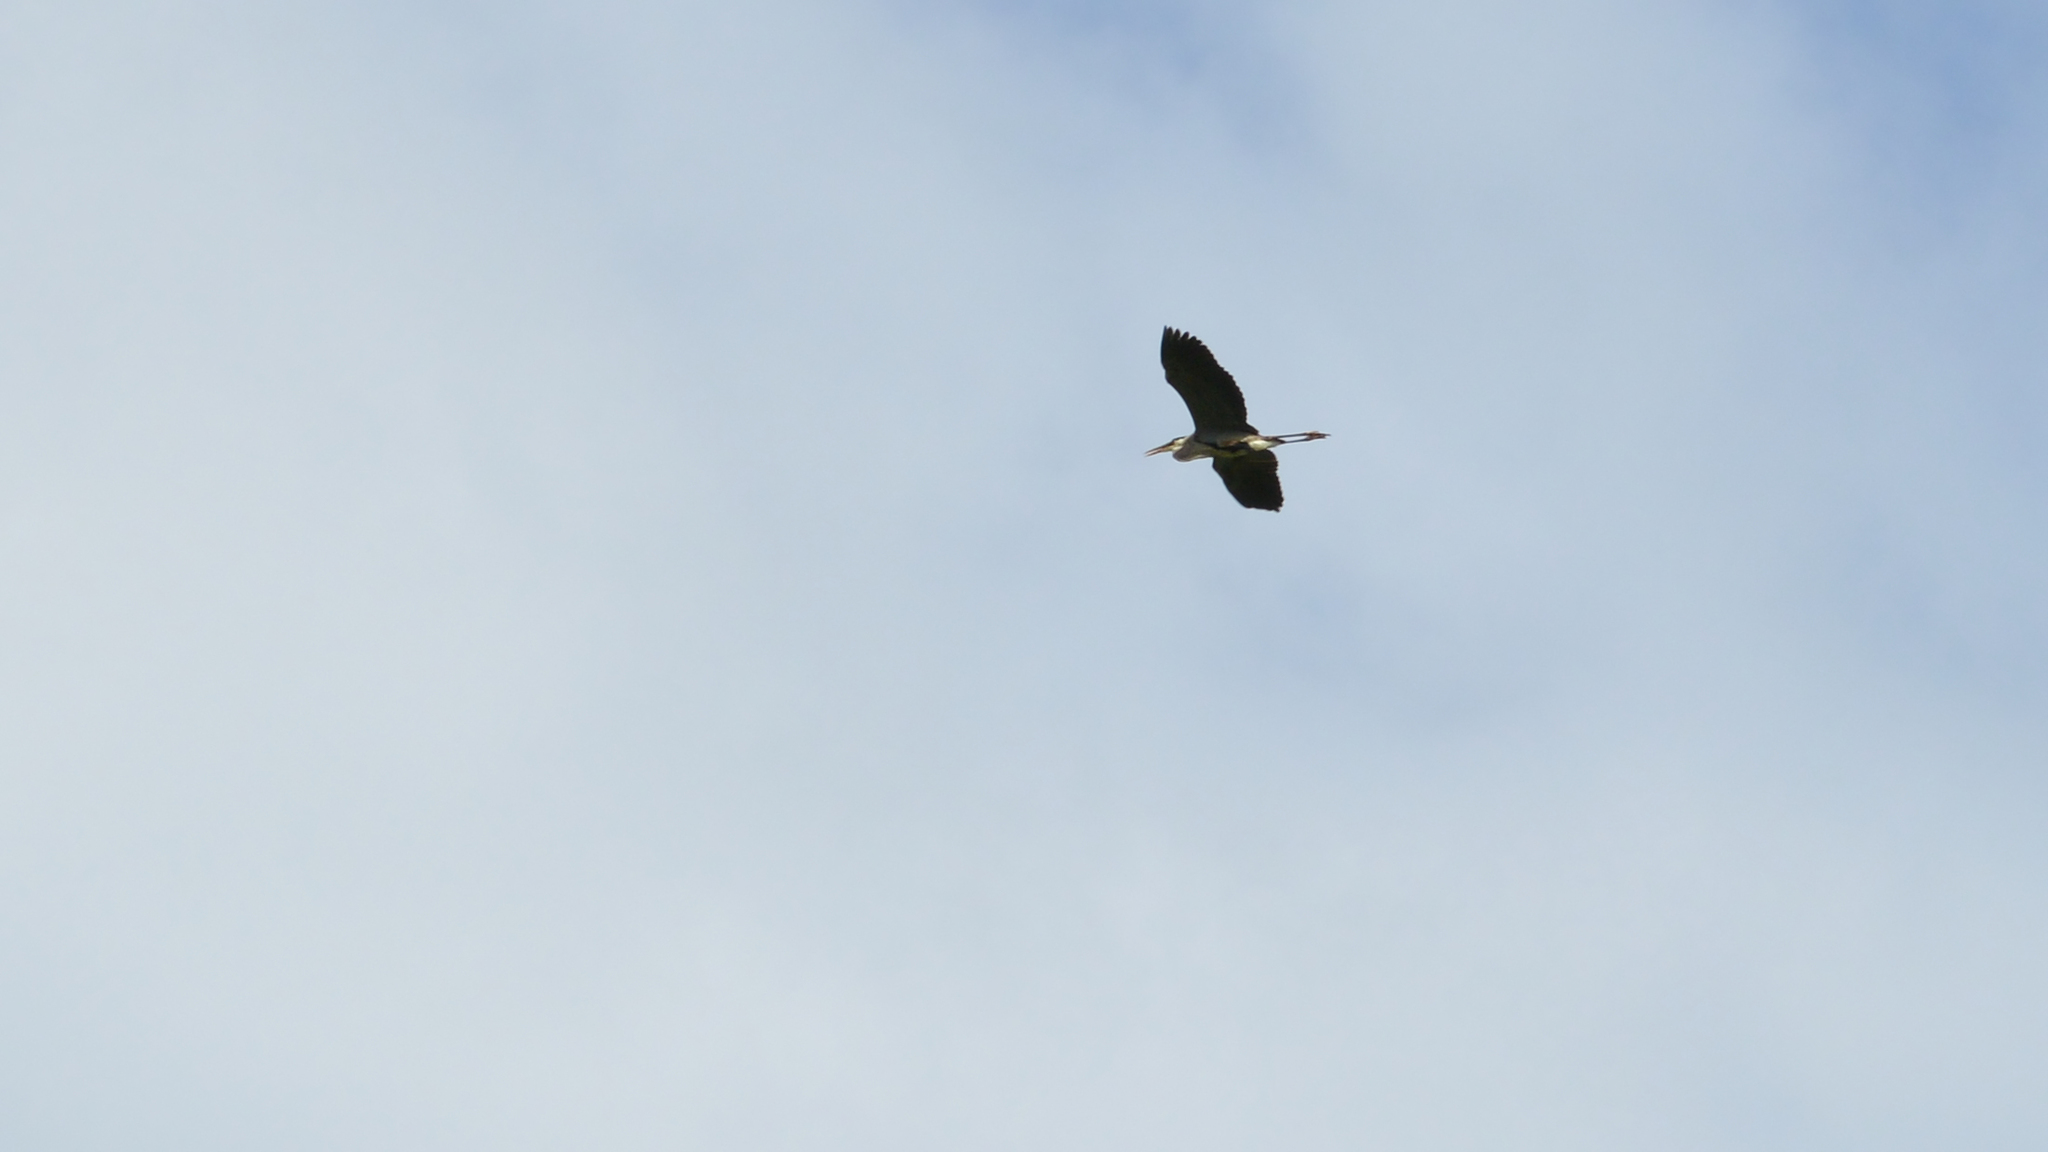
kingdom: Animalia
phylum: Chordata
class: Aves
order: Pelecaniformes
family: Ardeidae
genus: Ardea
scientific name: Ardea herodias
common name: Great blue heron
